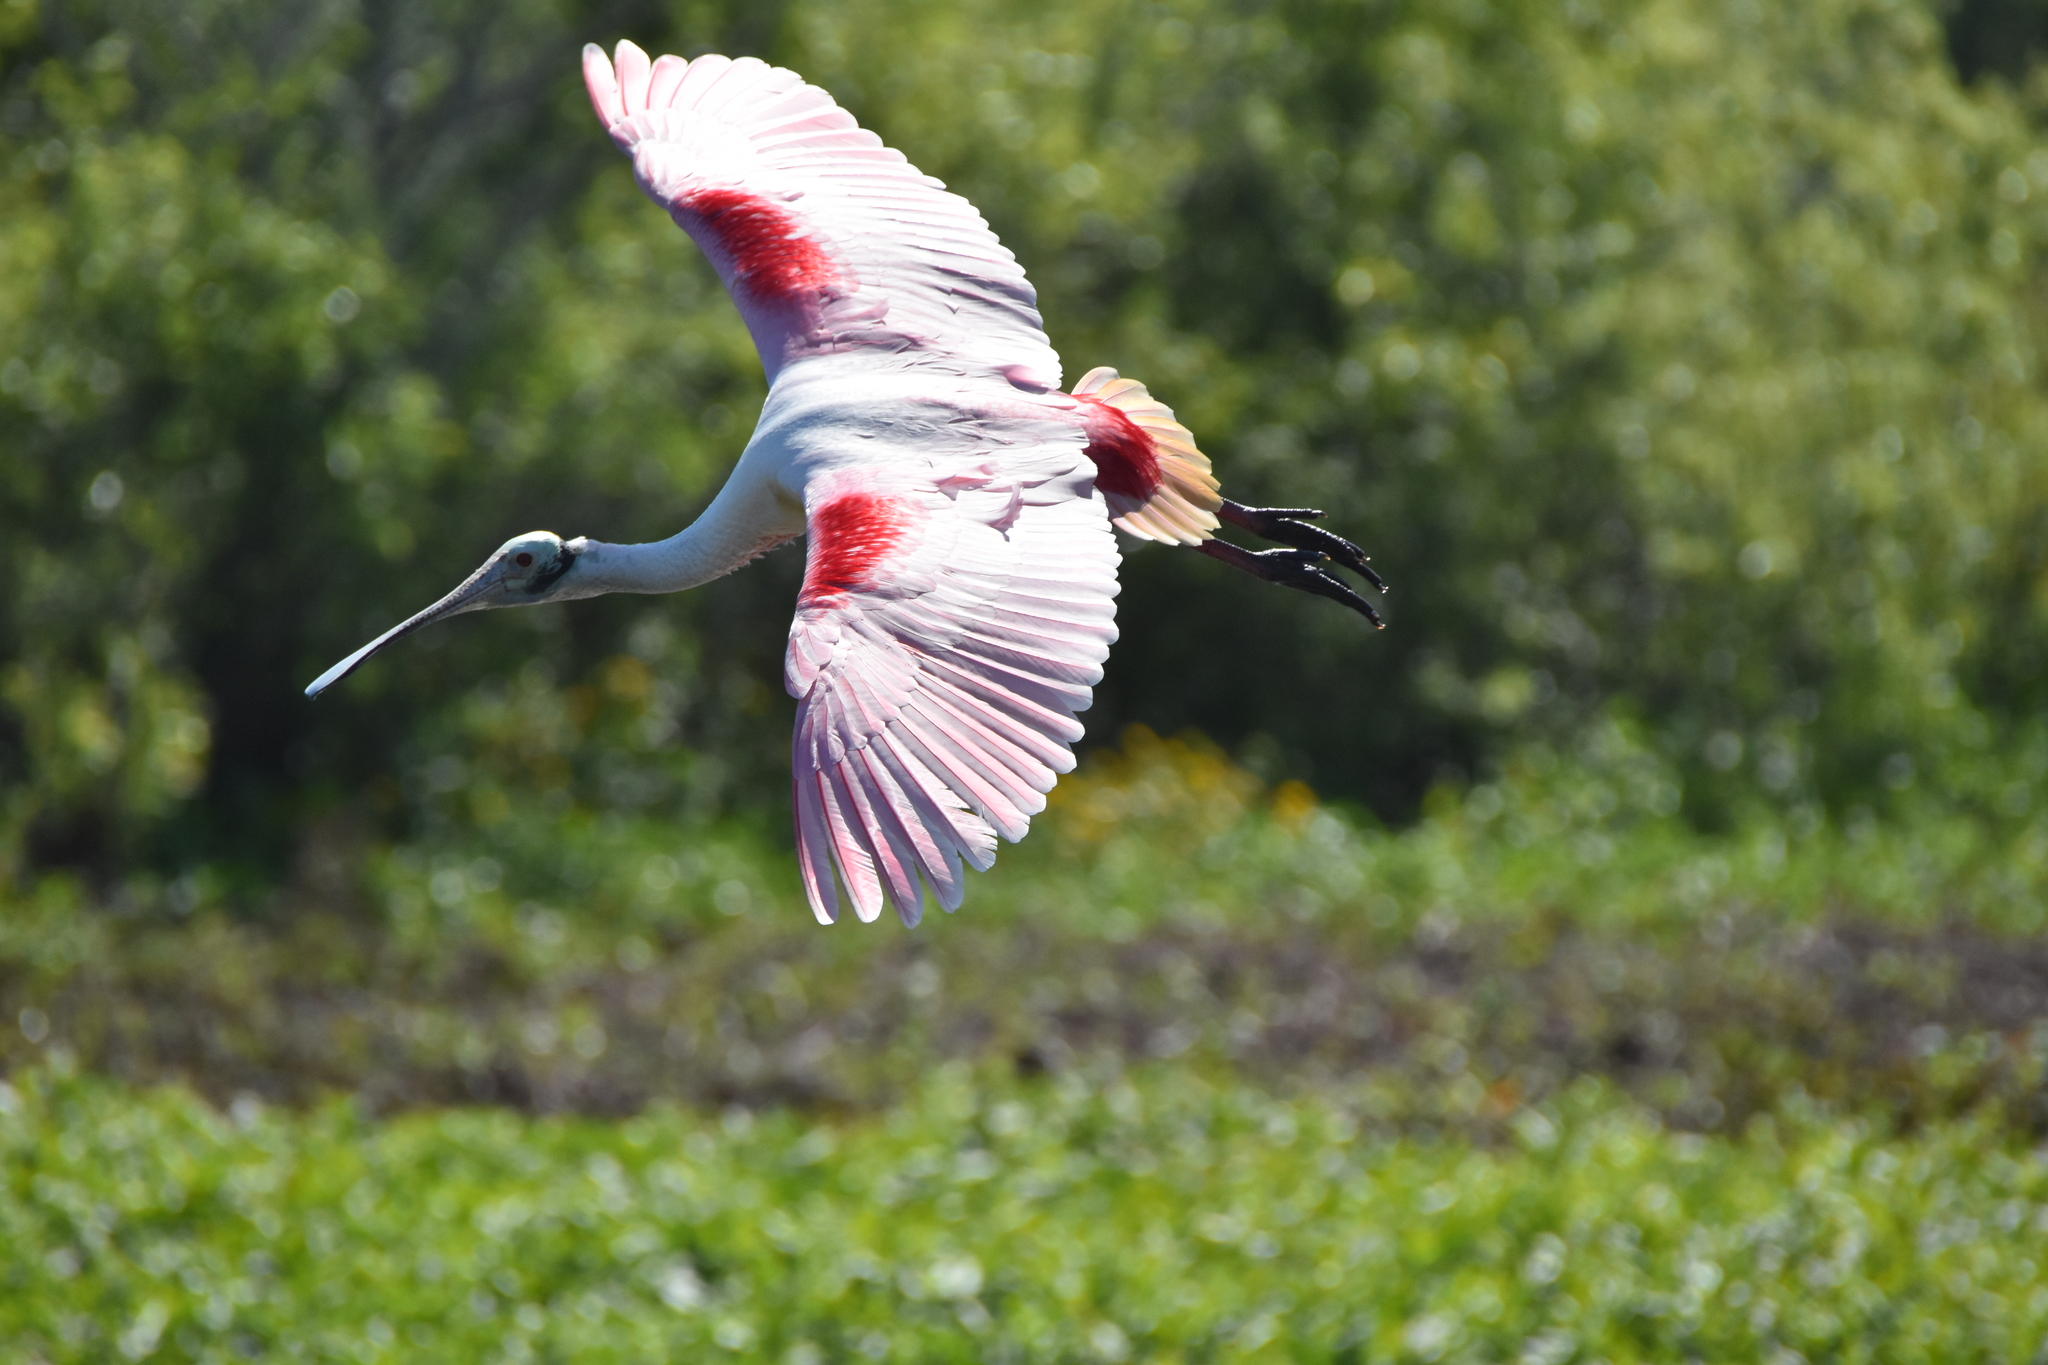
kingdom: Animalia
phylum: Chordata
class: Aves
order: Pelecaniformes
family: Threskiornithidae
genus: Platalea
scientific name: Platalea ajaja
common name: Roseate spoonbill
